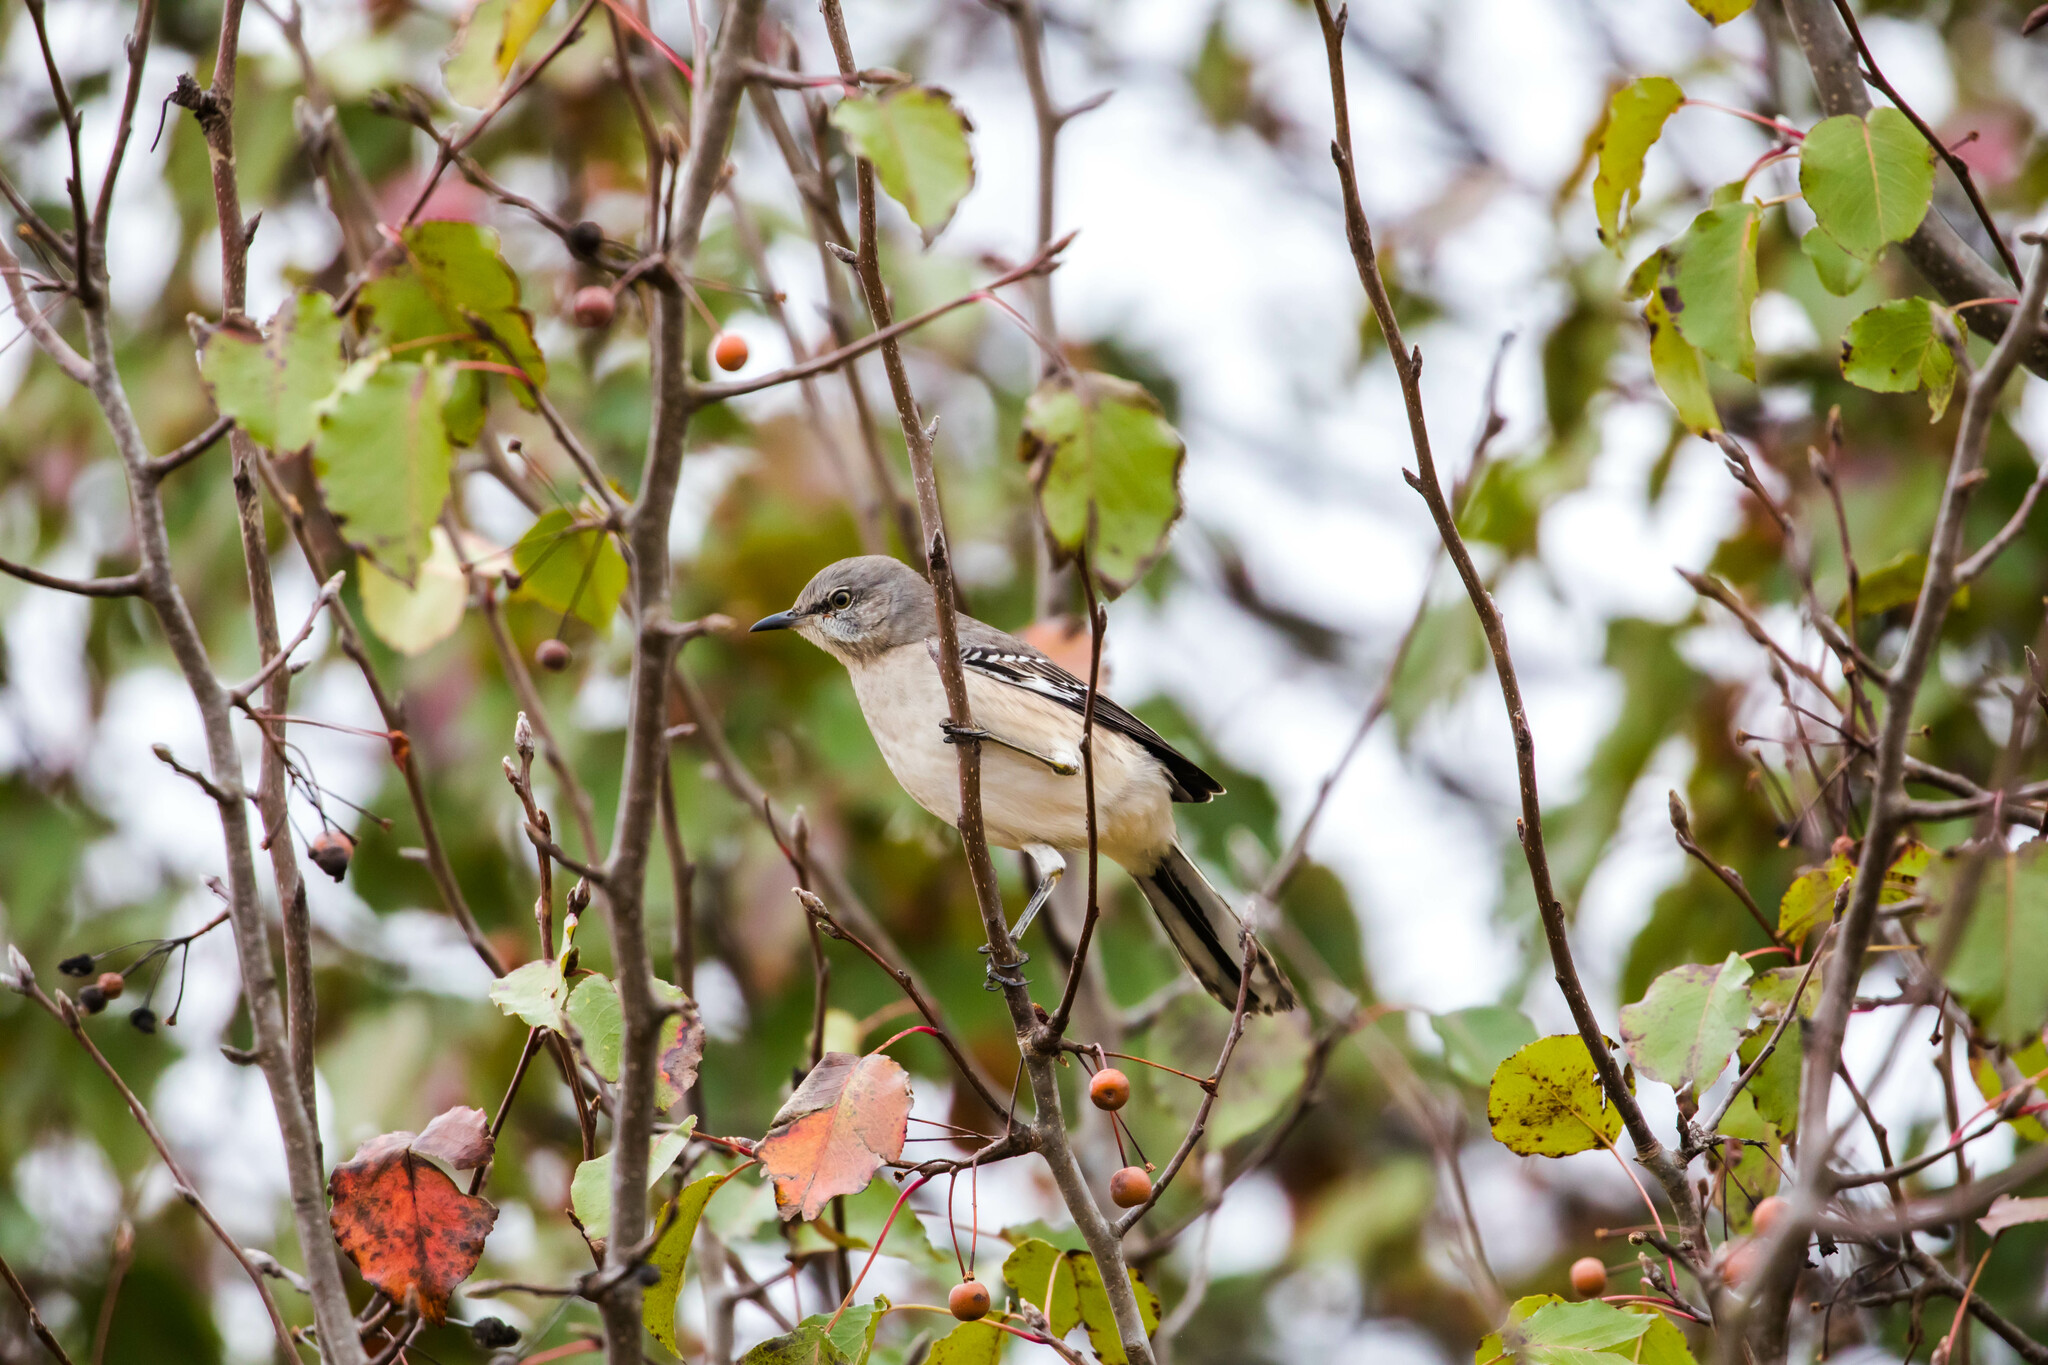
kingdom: Animalia
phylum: Chordata
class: Aves
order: Passeriformes
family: Mimidae
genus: Mimus
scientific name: Mimus polyglottos
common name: Northern mockingbird
